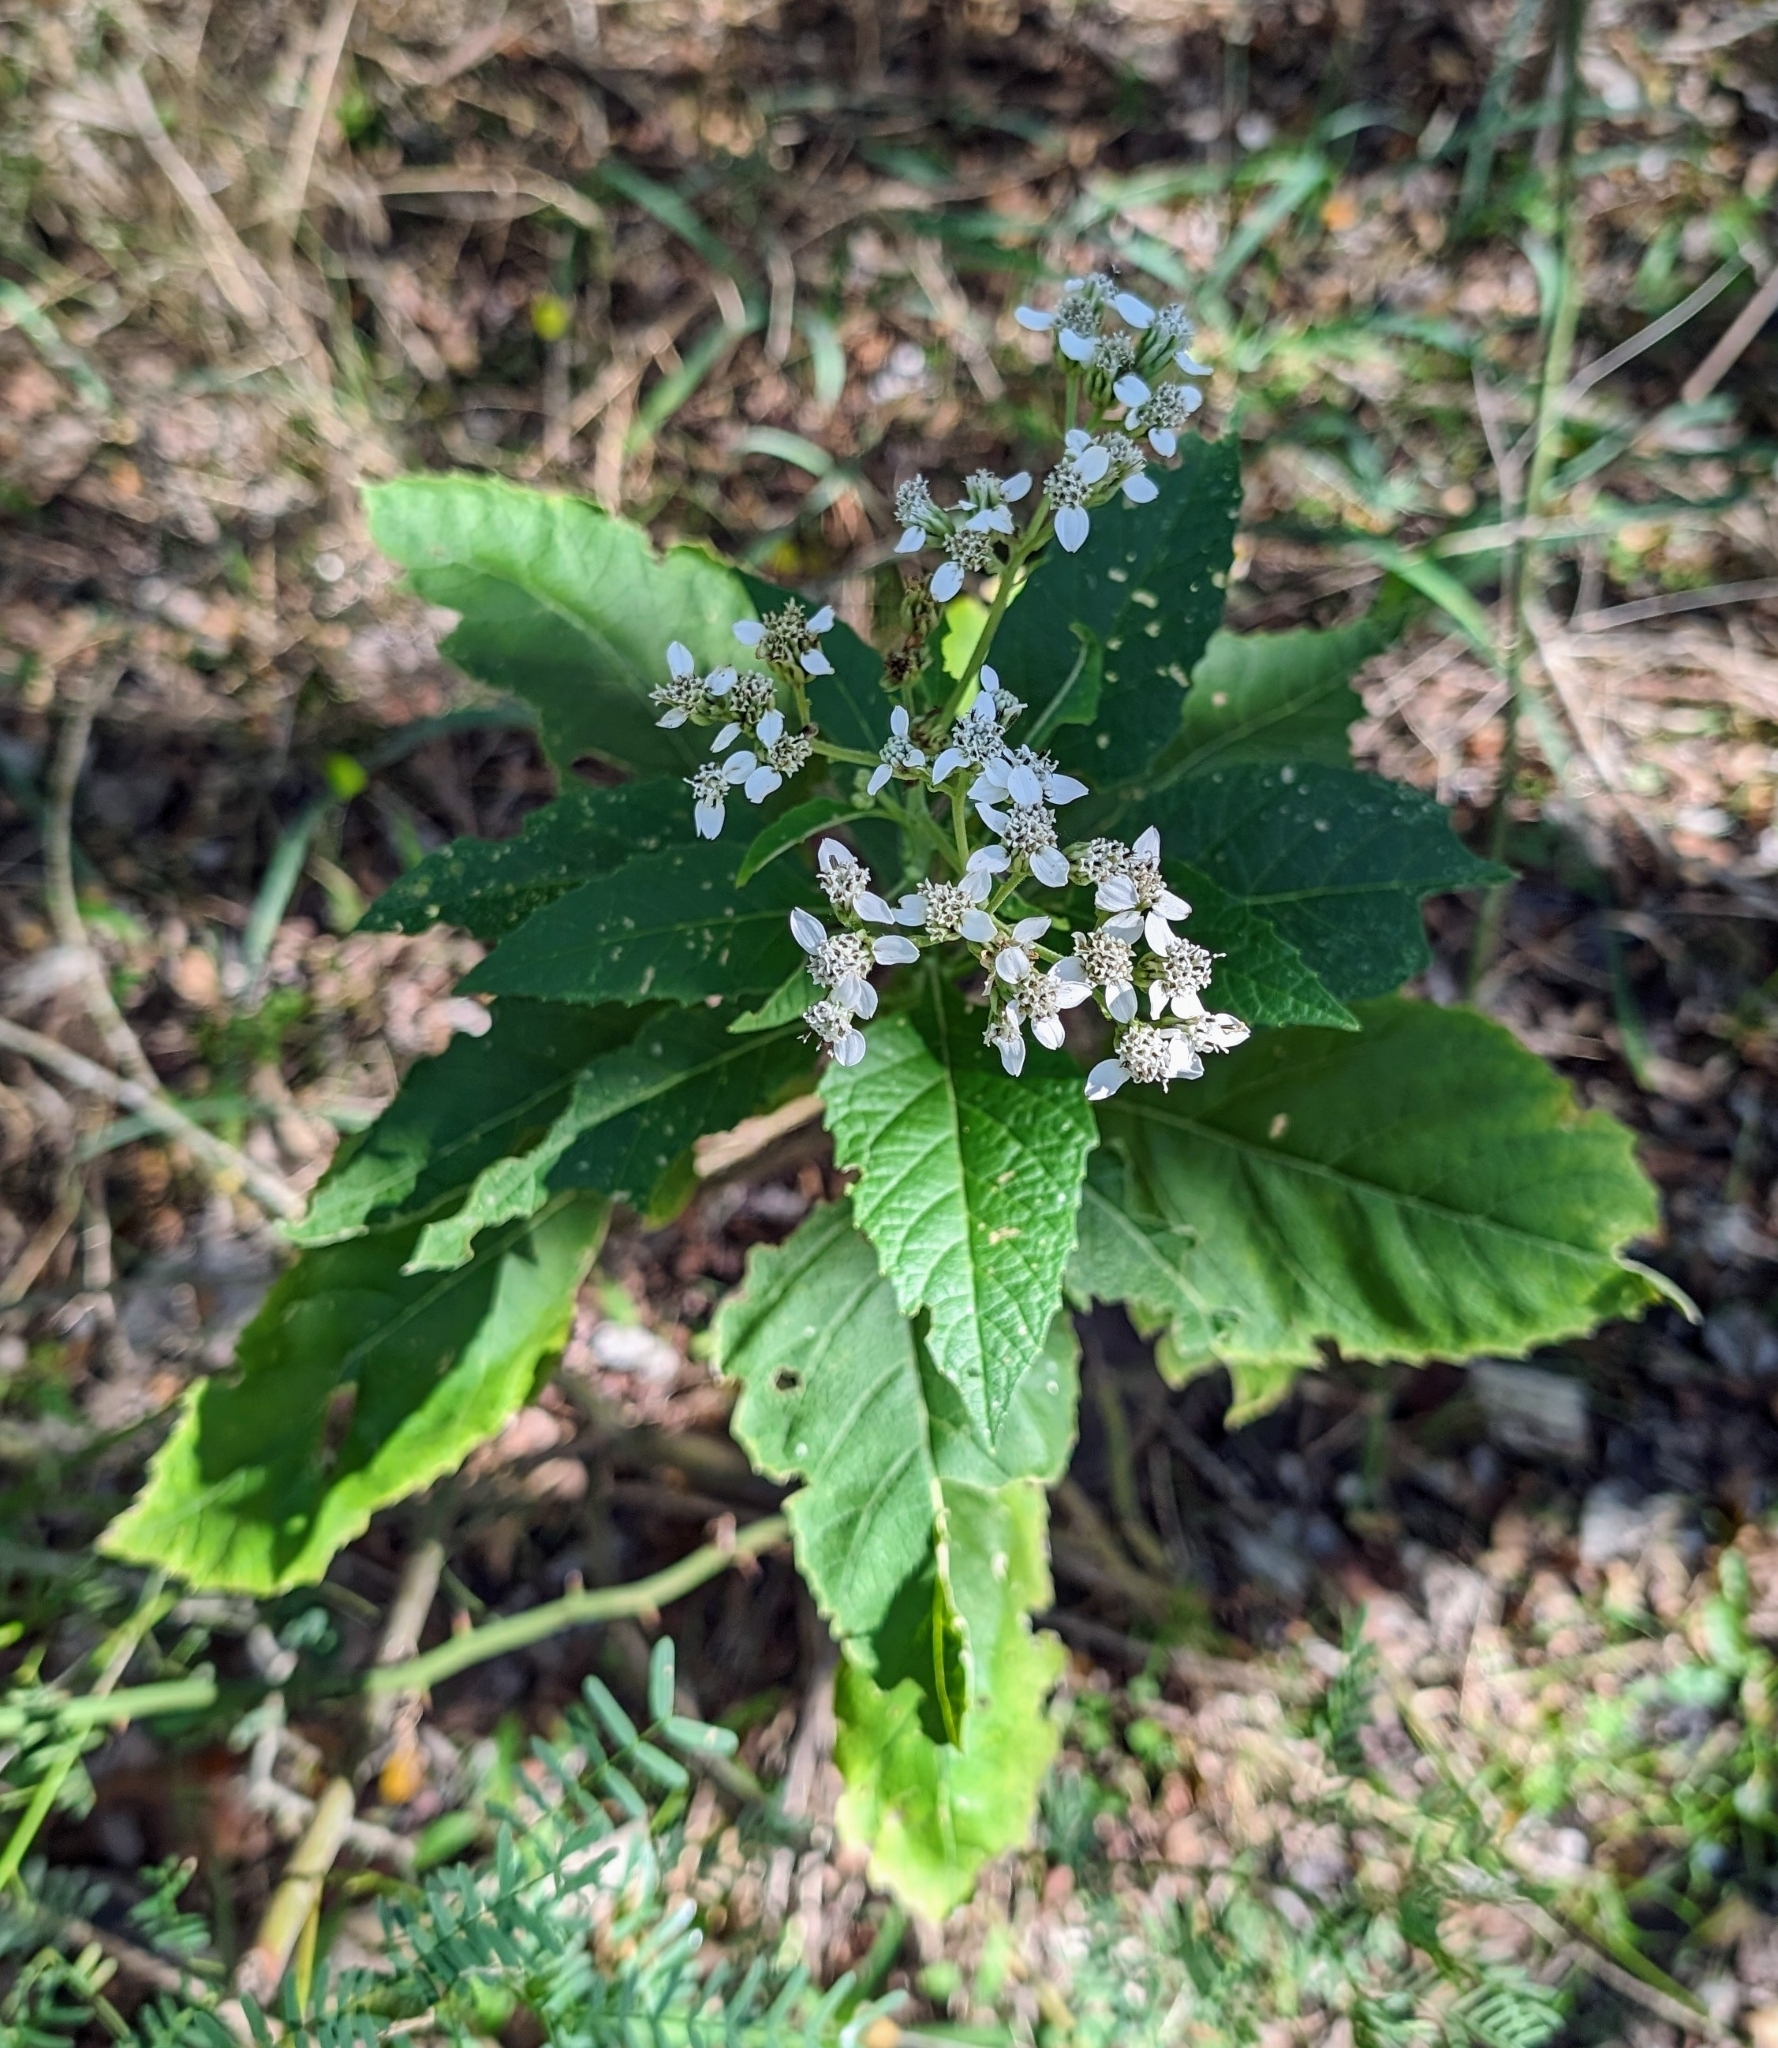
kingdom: Plantae
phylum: Tracheophyta
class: Magnoliopsida
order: Asterales
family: Asteraceae
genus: Verbesina
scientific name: Verbesina virginica
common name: Frostweed
